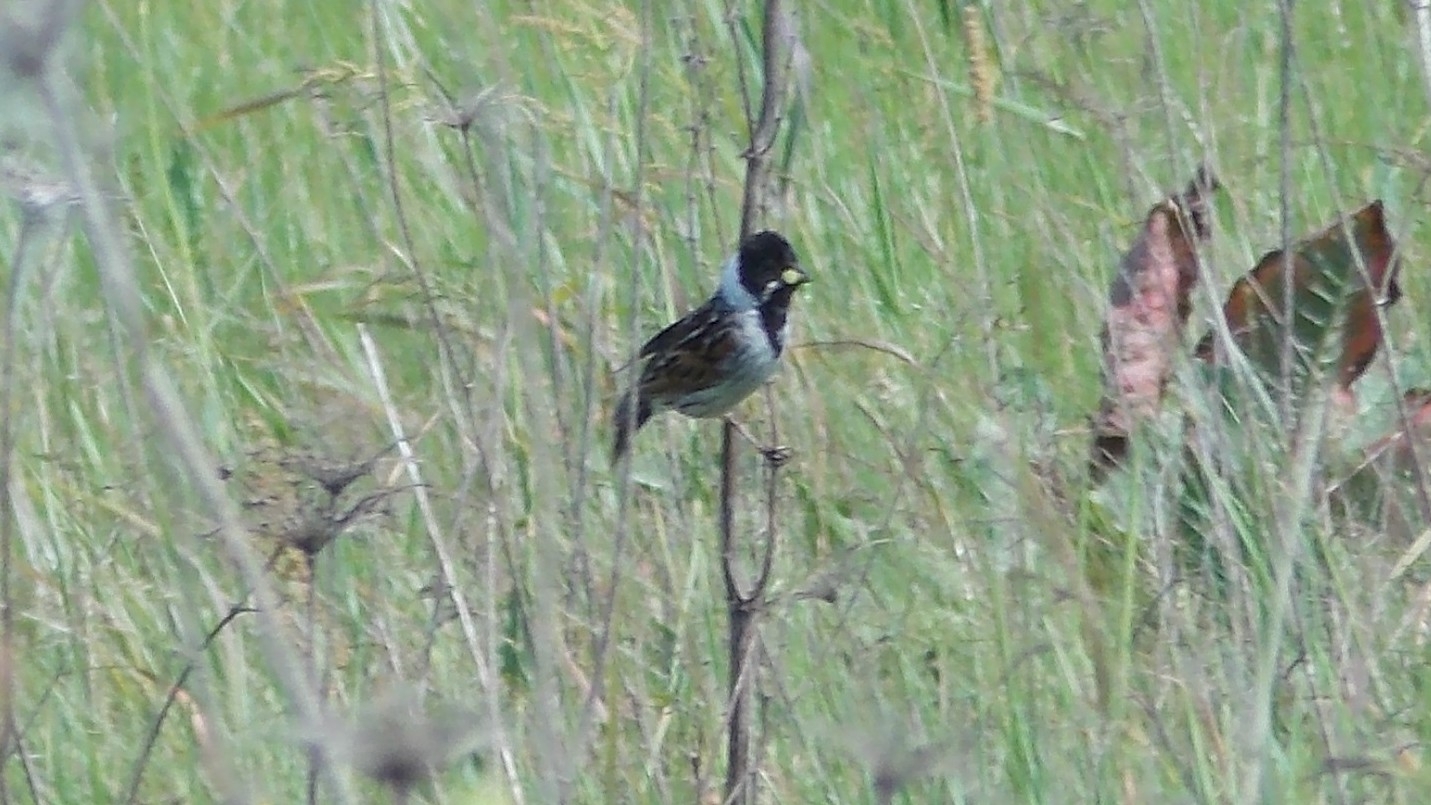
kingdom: Animalia
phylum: Chordata
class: Aves
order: Passeriformes
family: Emberizidae
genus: Emberiza
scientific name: Emberiza schoeniclus
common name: Reed bunting
